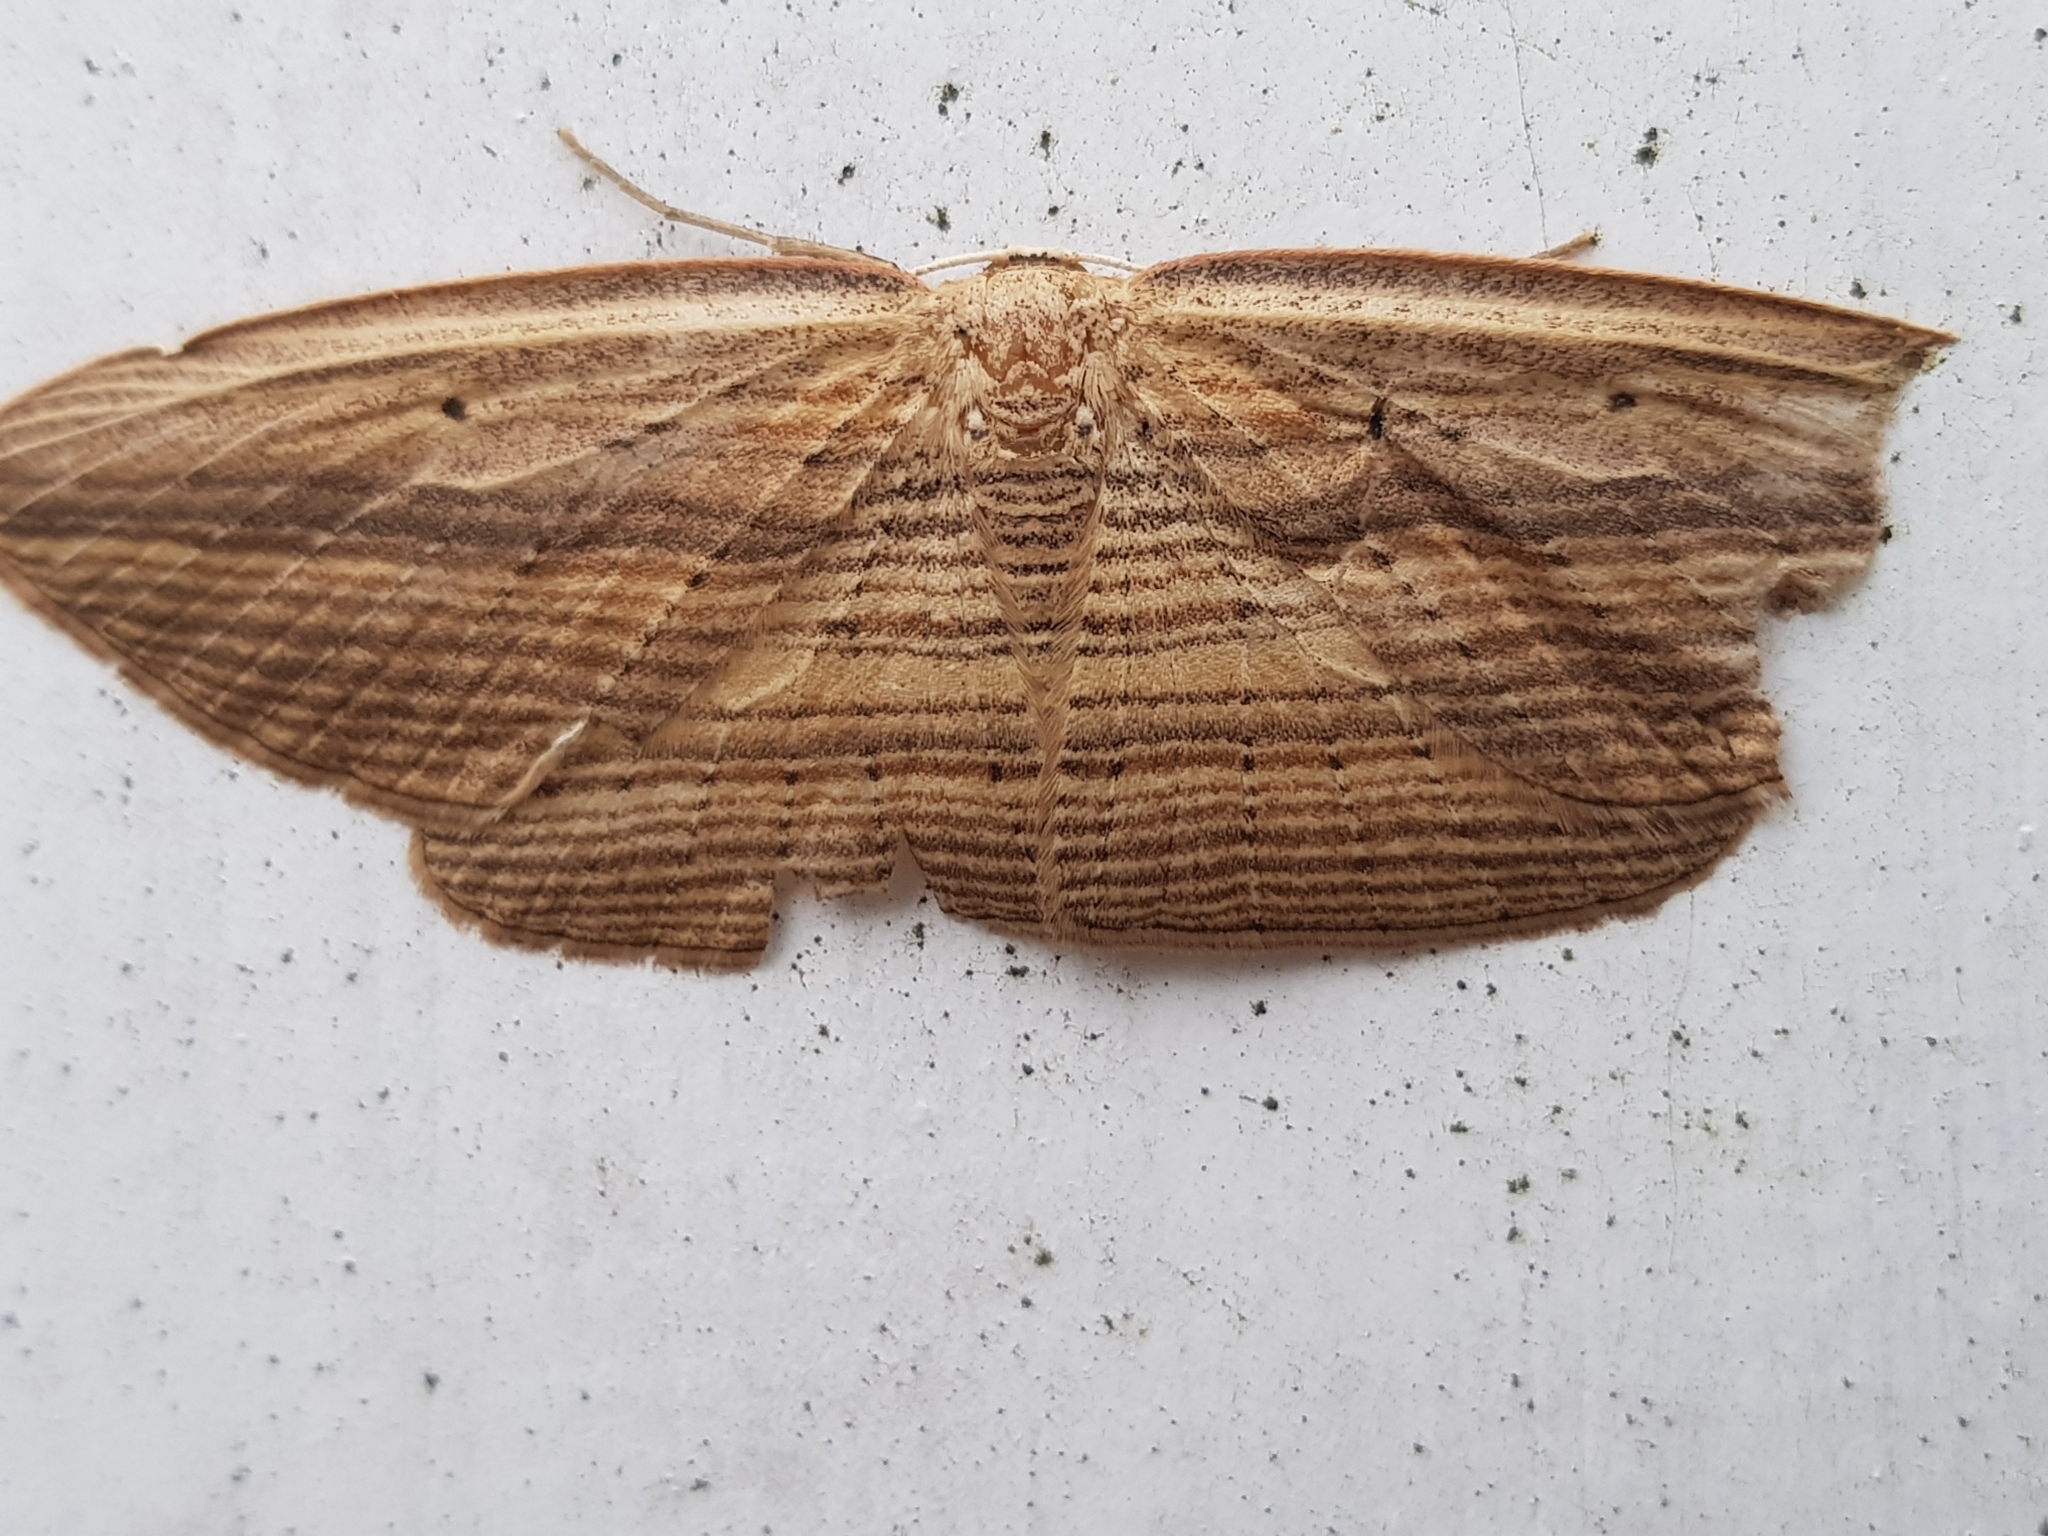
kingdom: Animalia
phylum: Arthropoda
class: Insecta
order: Lepidoptera
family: Geometridae
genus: Epiphryne
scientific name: Epiphryne verriculata
